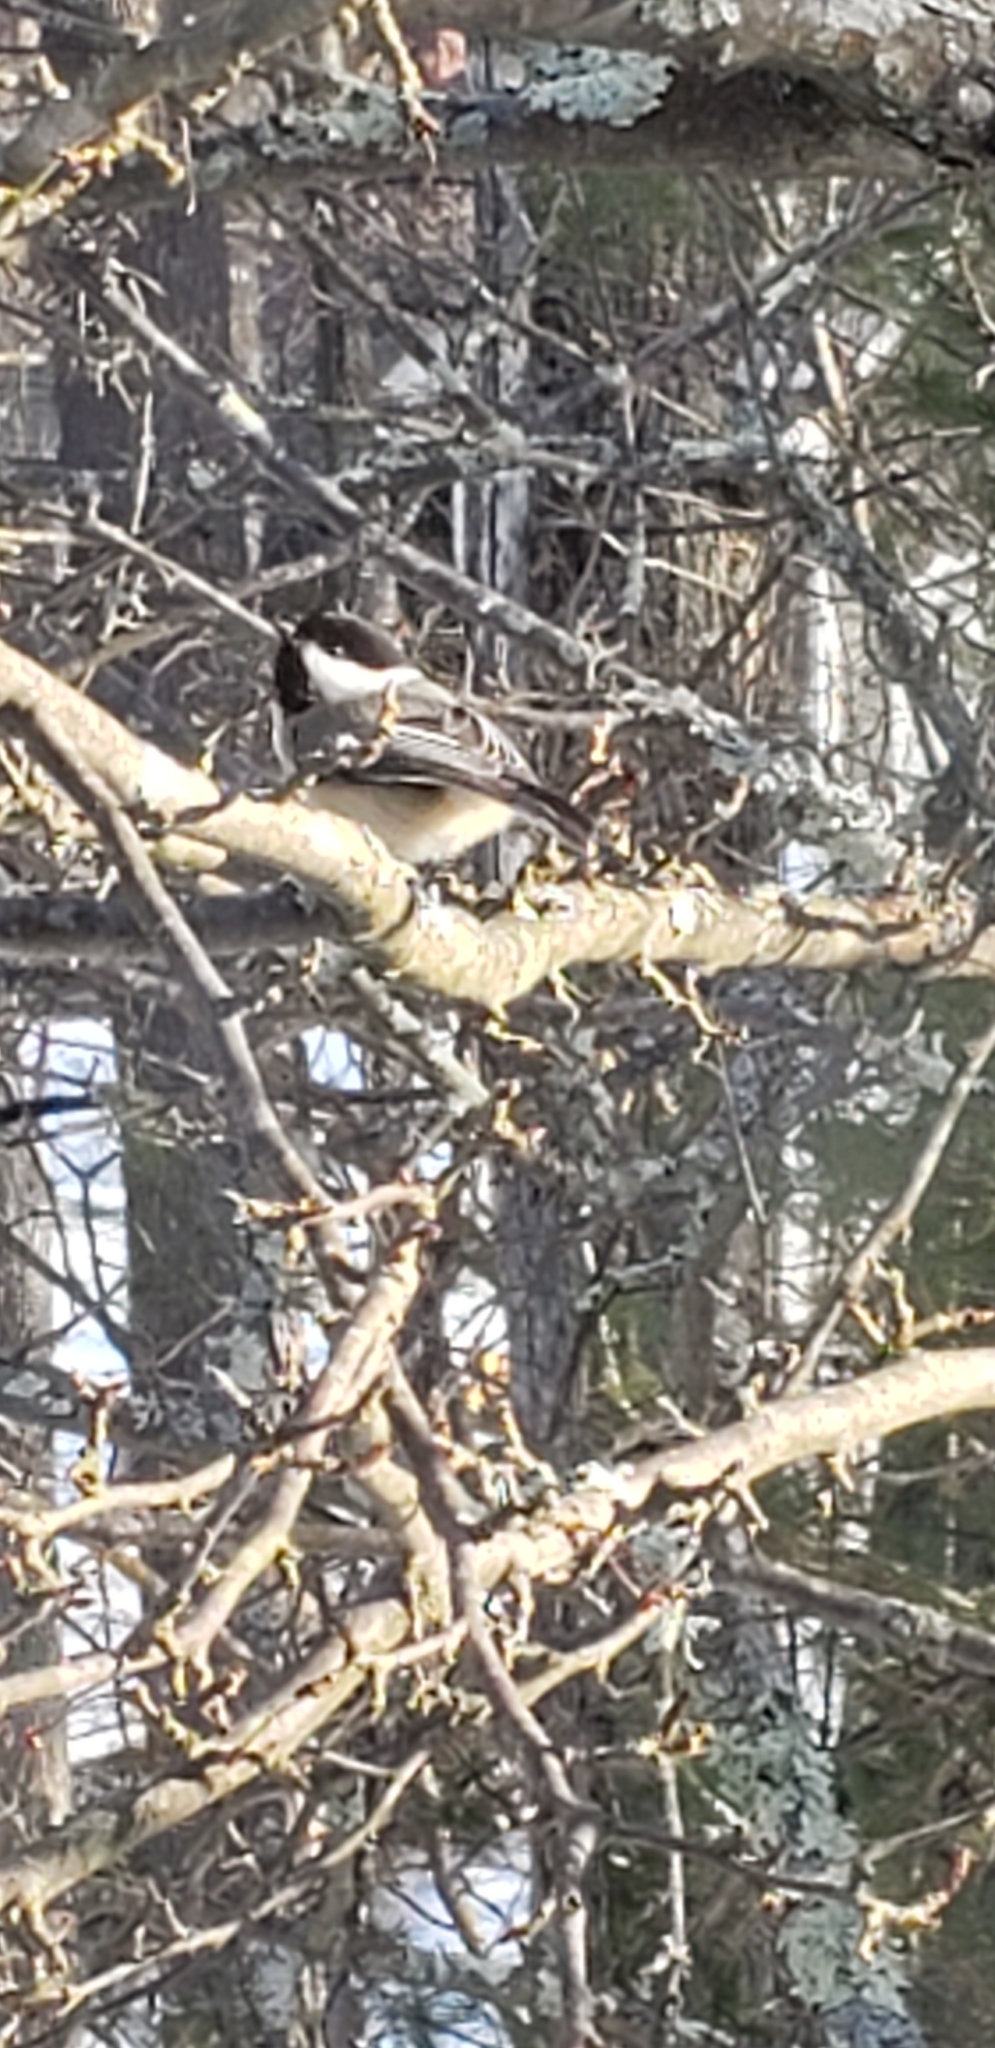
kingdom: Animalia
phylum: Chordata
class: Aves
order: Passeriformes
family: Paridae
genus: Poecile
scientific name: Poecile atricapillus
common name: Black-capped chickadee
